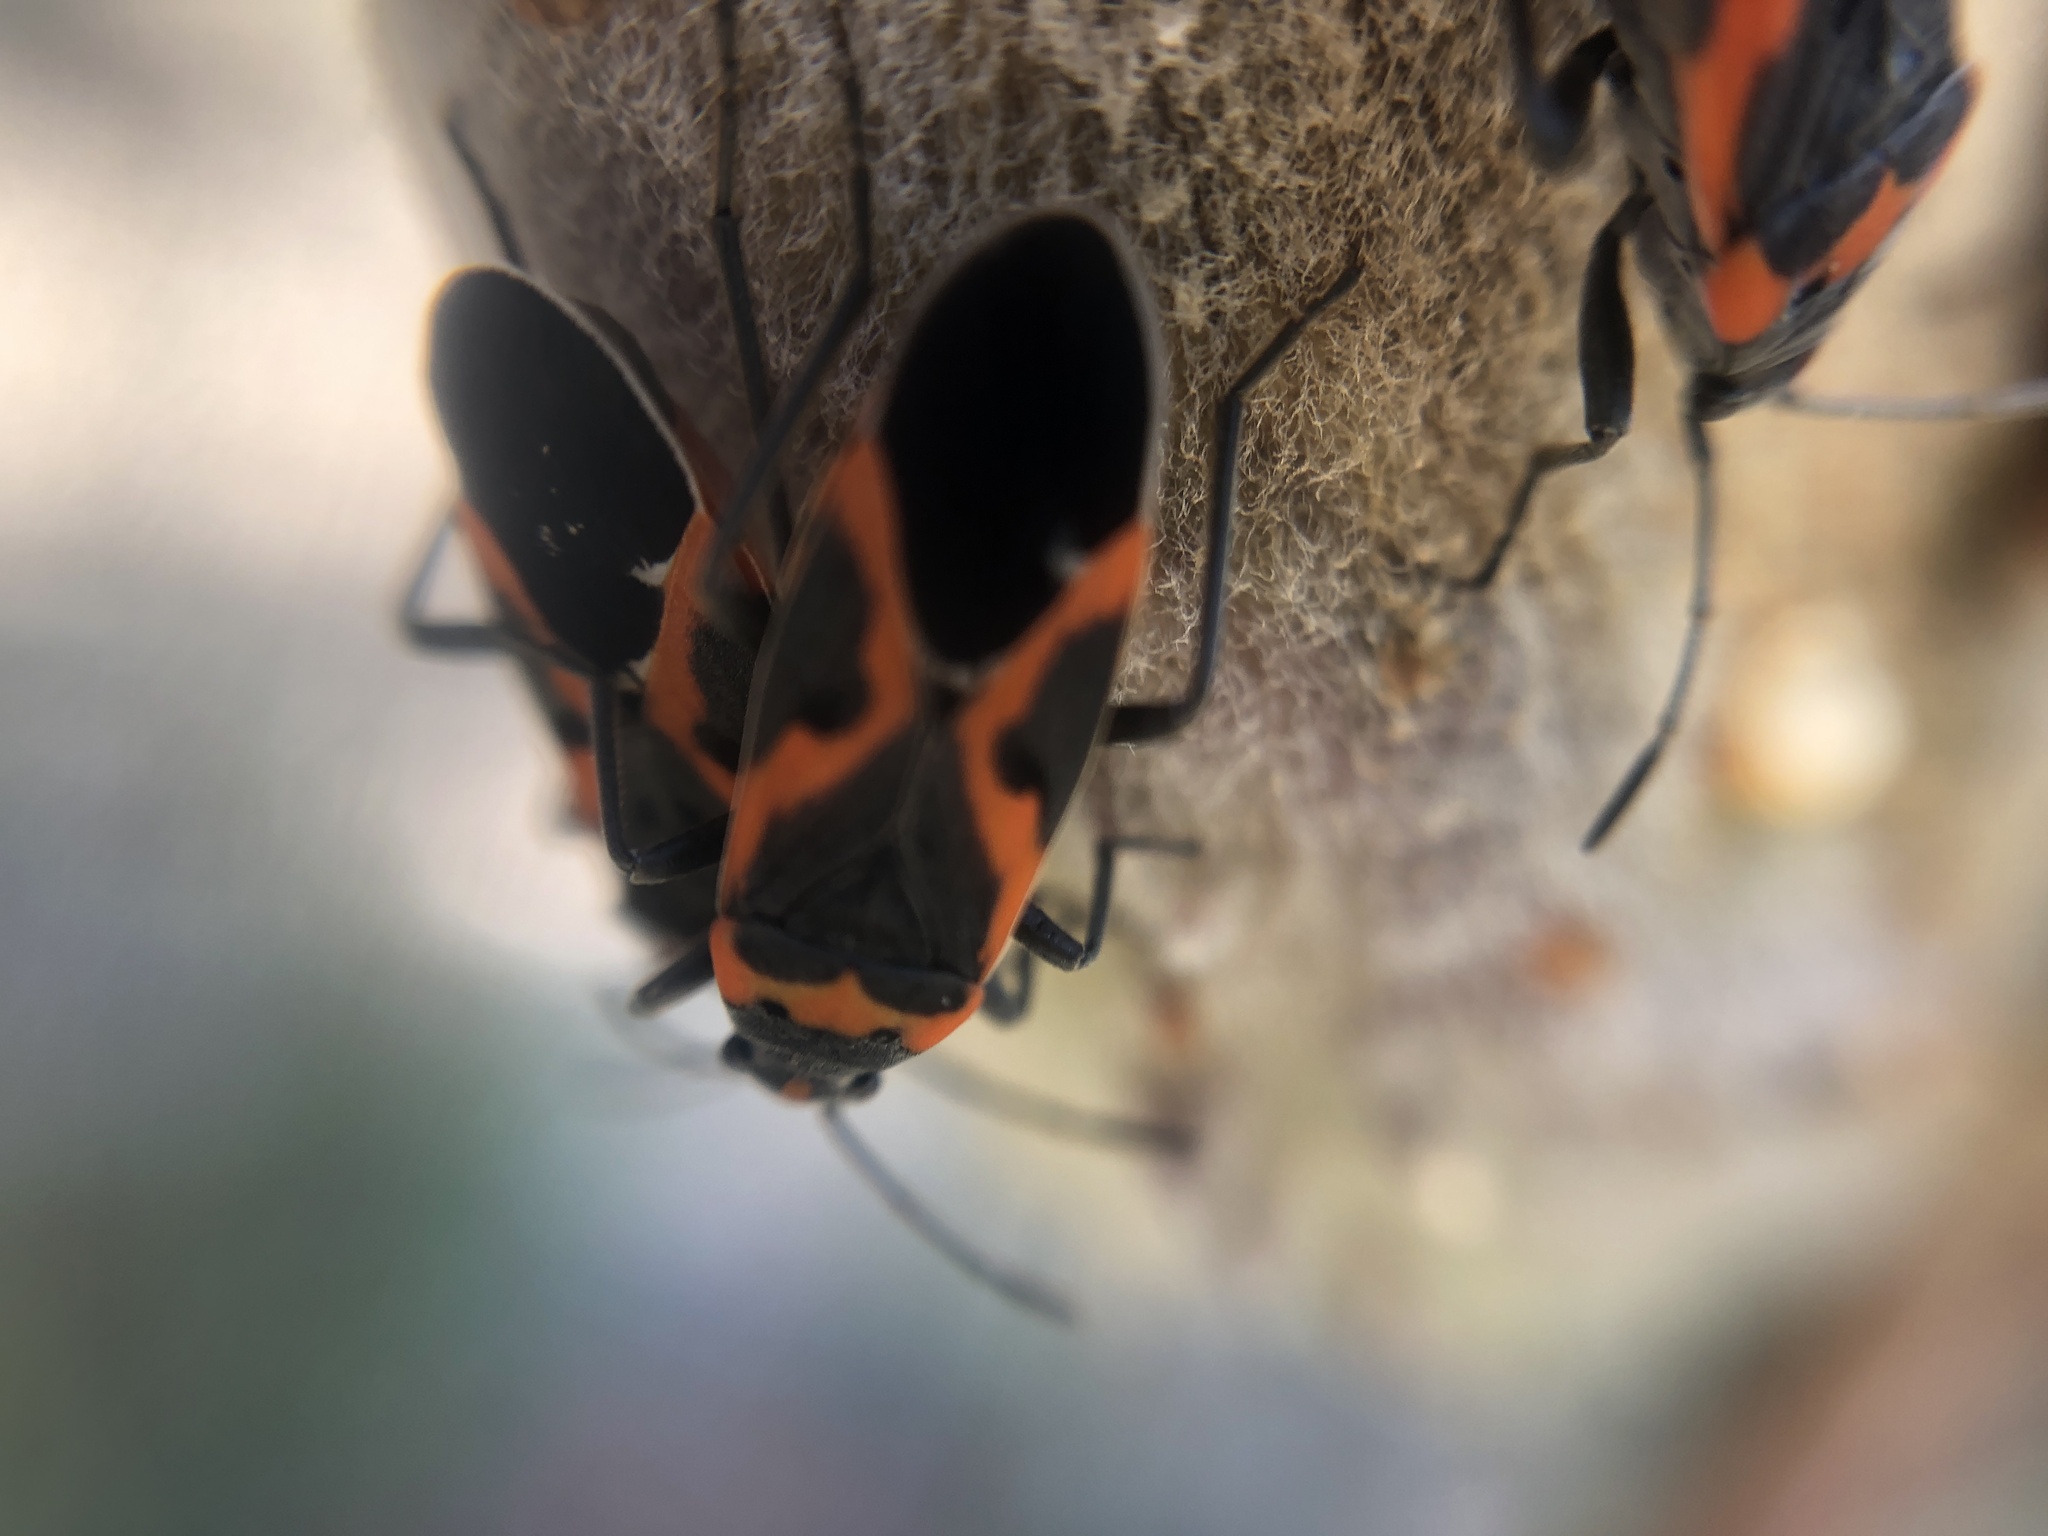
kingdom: Animalia
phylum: Arthropoda
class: Insecta
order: Hemiptera
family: Lygaeidae
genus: Lygaeus
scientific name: Lygaeus kalmii
